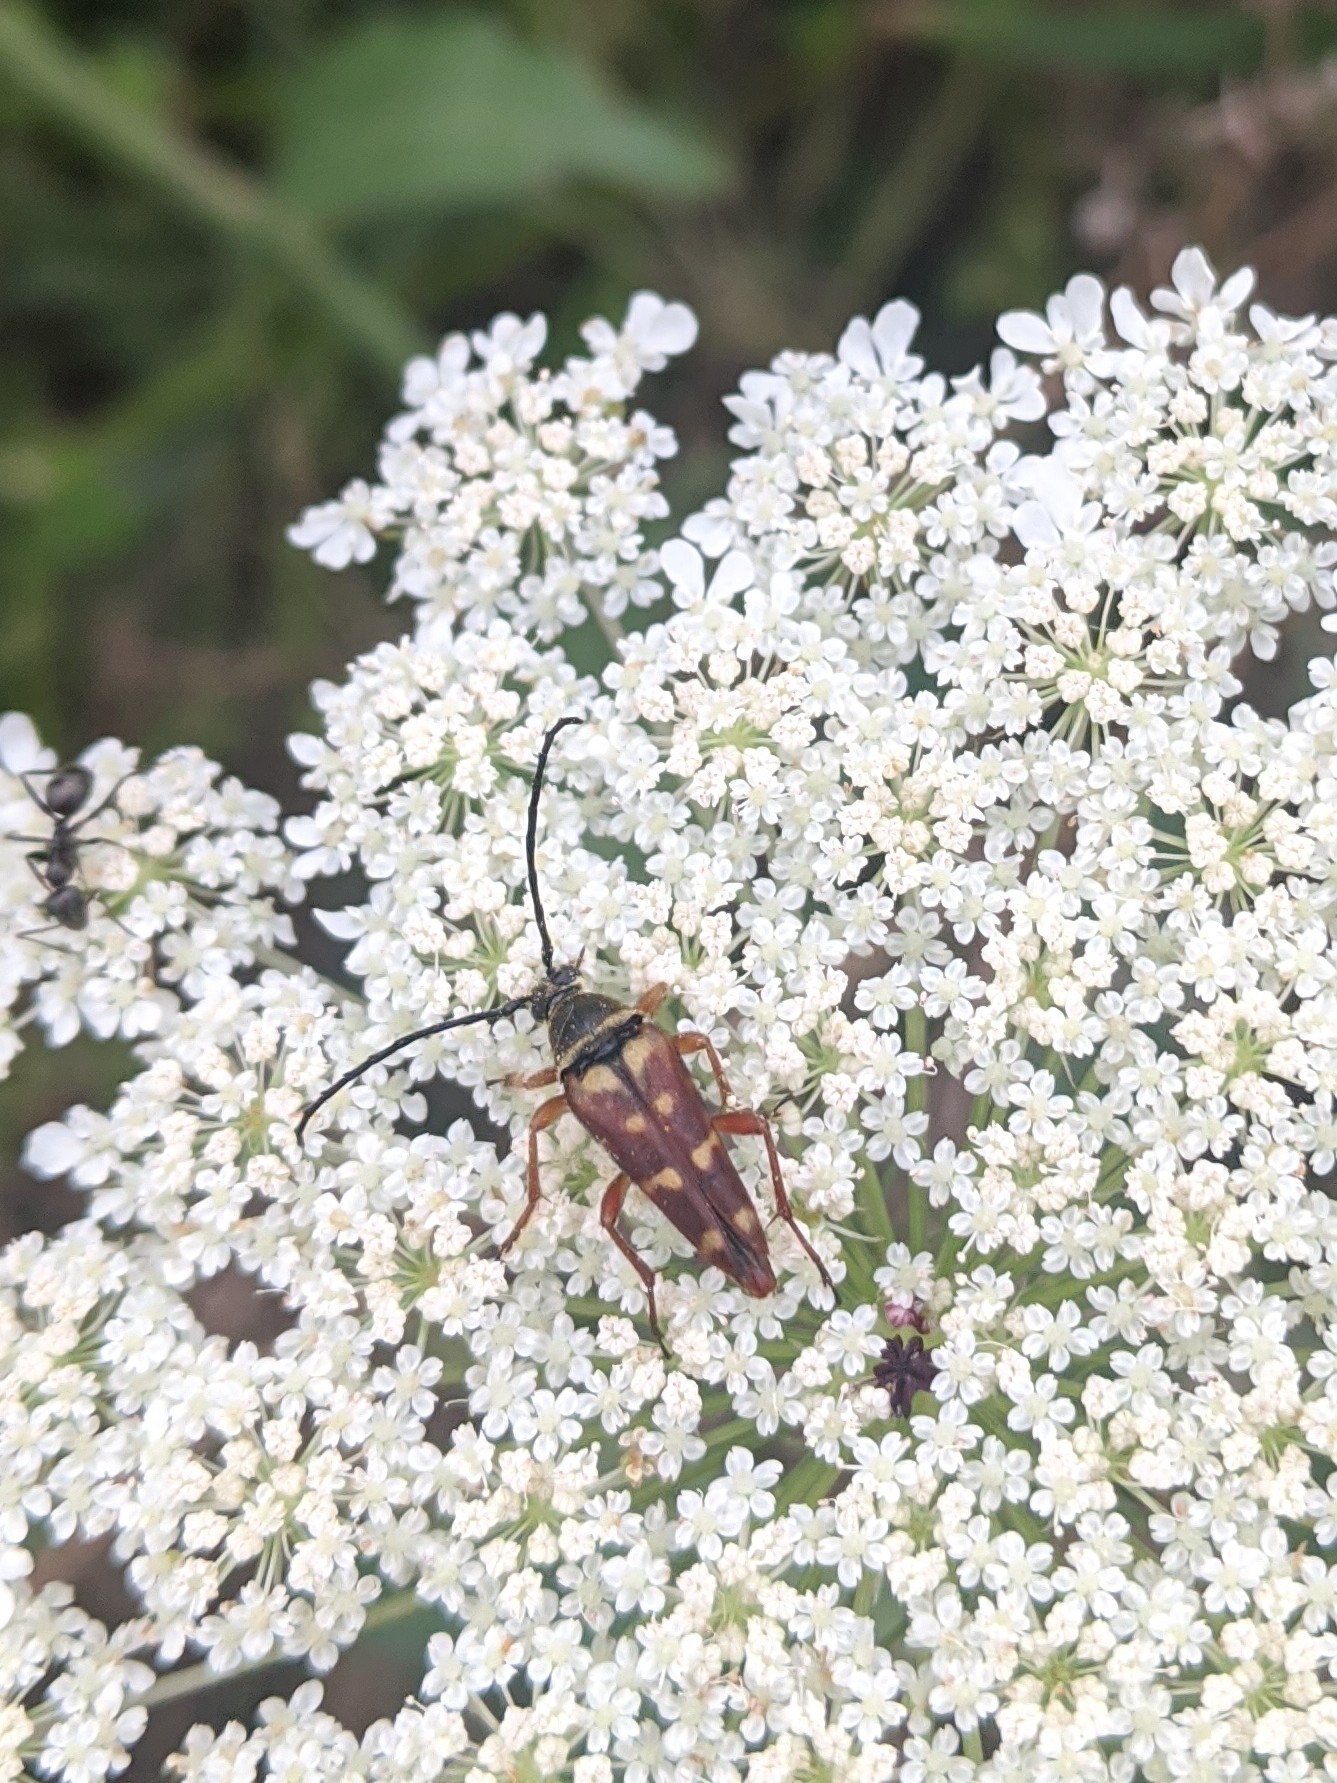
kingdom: Animalia
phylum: Arthropoda
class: Insecta
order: Coleoptera
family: Cerambycidae
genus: Typocerus
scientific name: Typocerus velutinus
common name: Banded longhorn beetle
